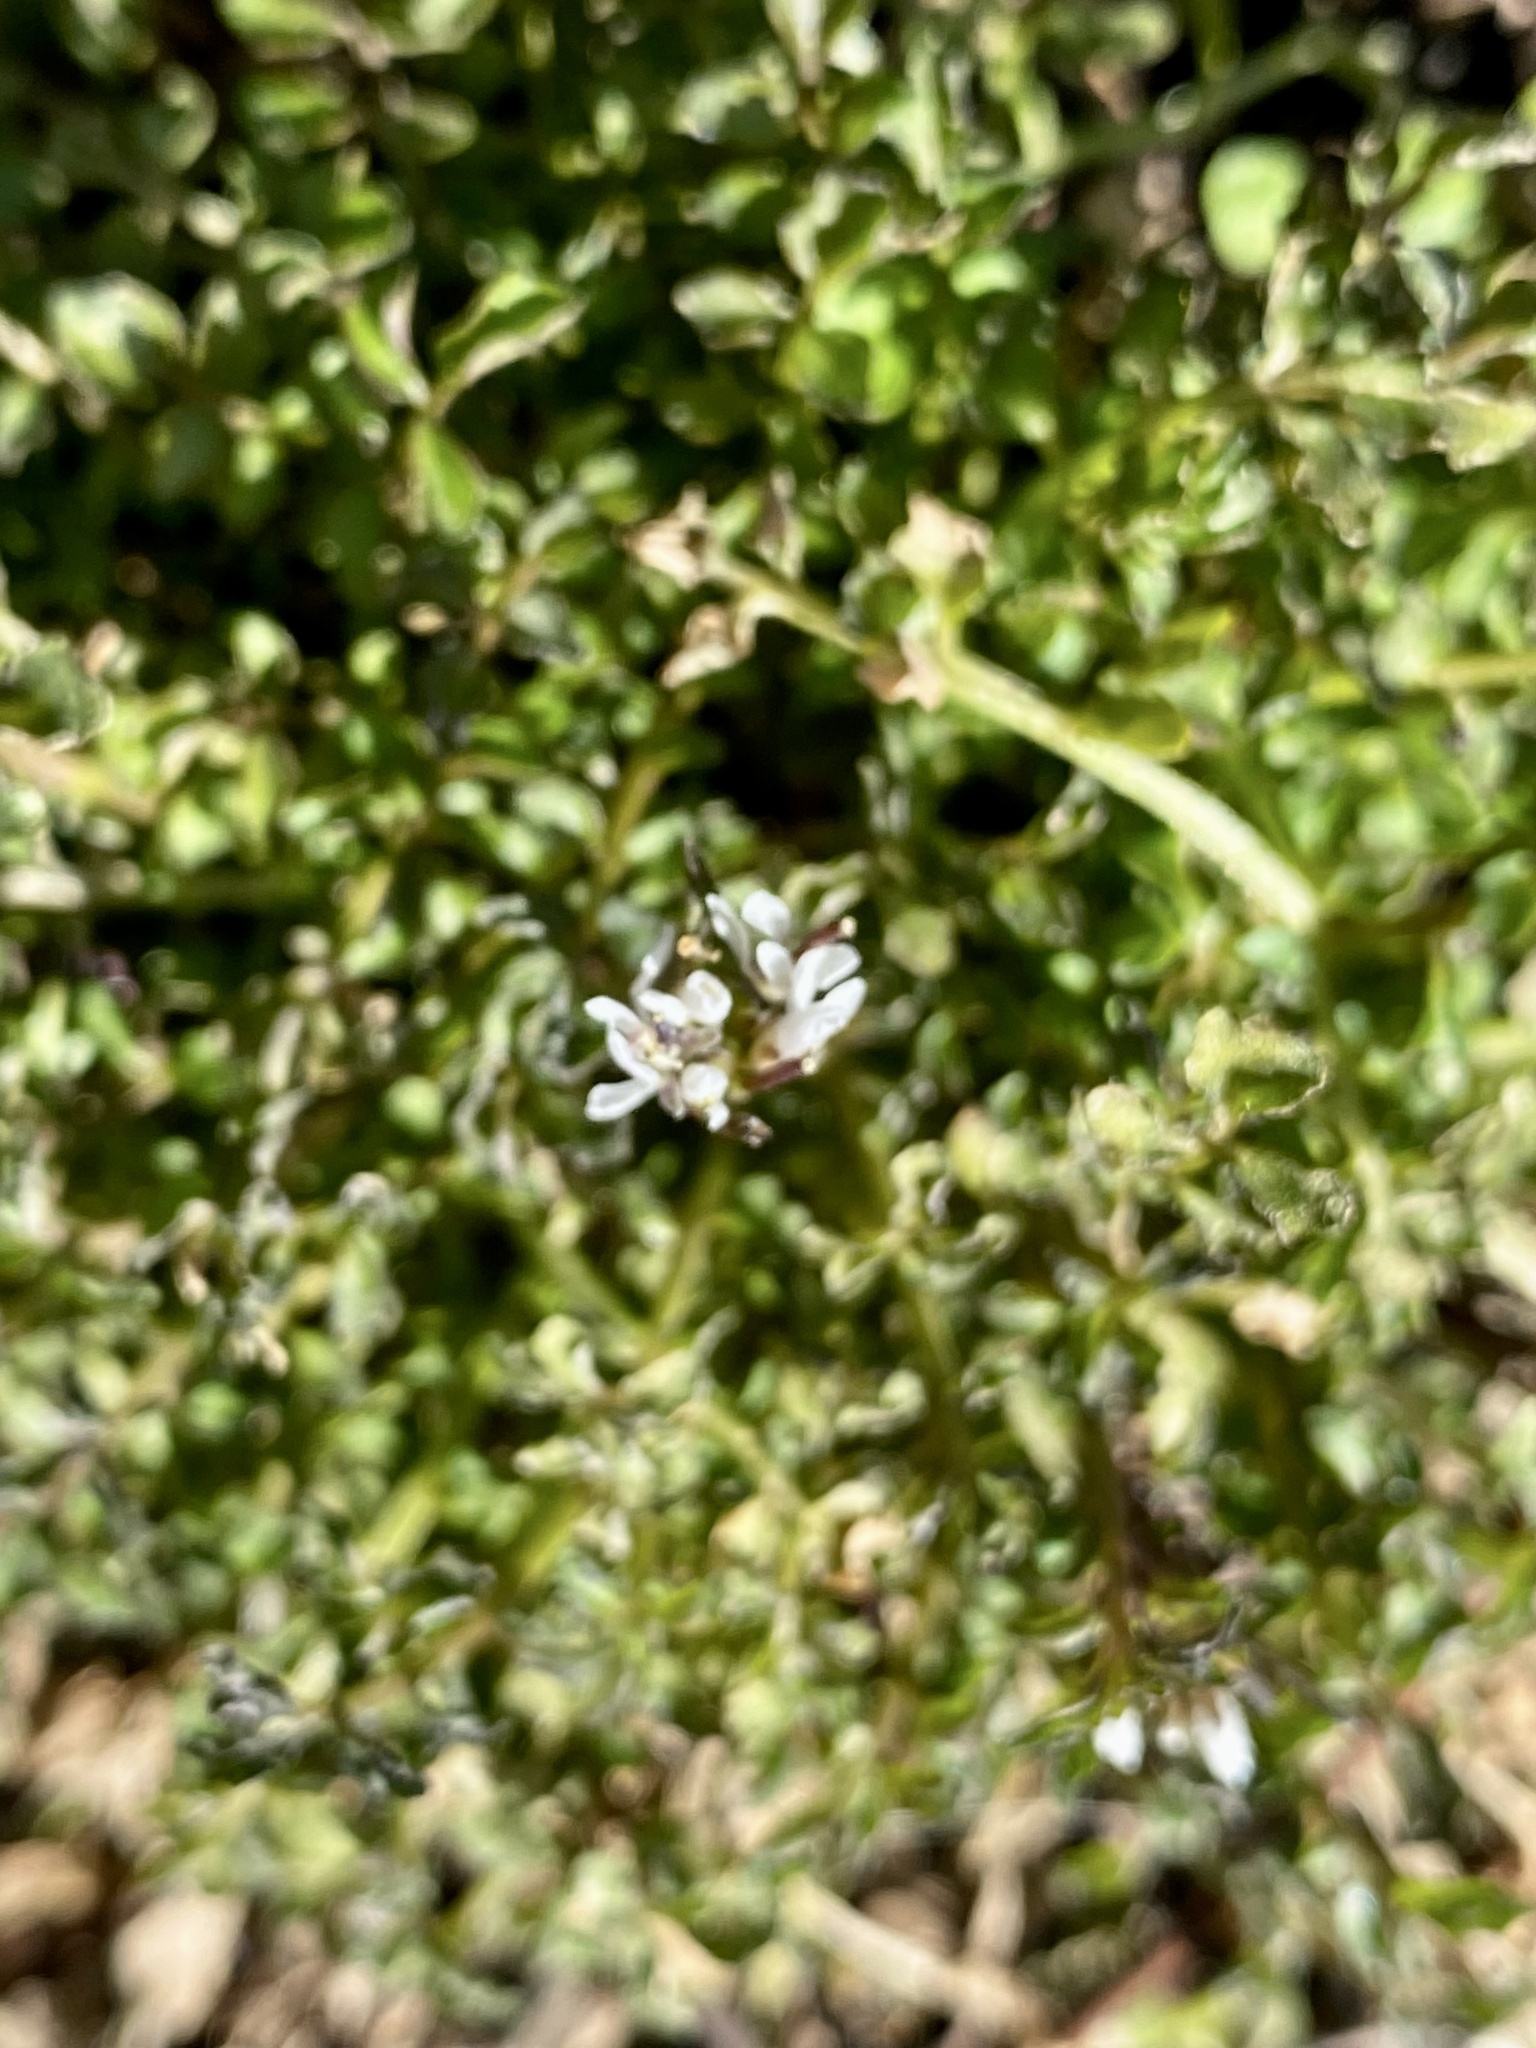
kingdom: Plantae
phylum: Tracheophyta
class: Magnoliopsida
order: Brassicales
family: Brassicaceae
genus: Cardamine
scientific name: Cardamine hirsuta
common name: Hairy bittercress
